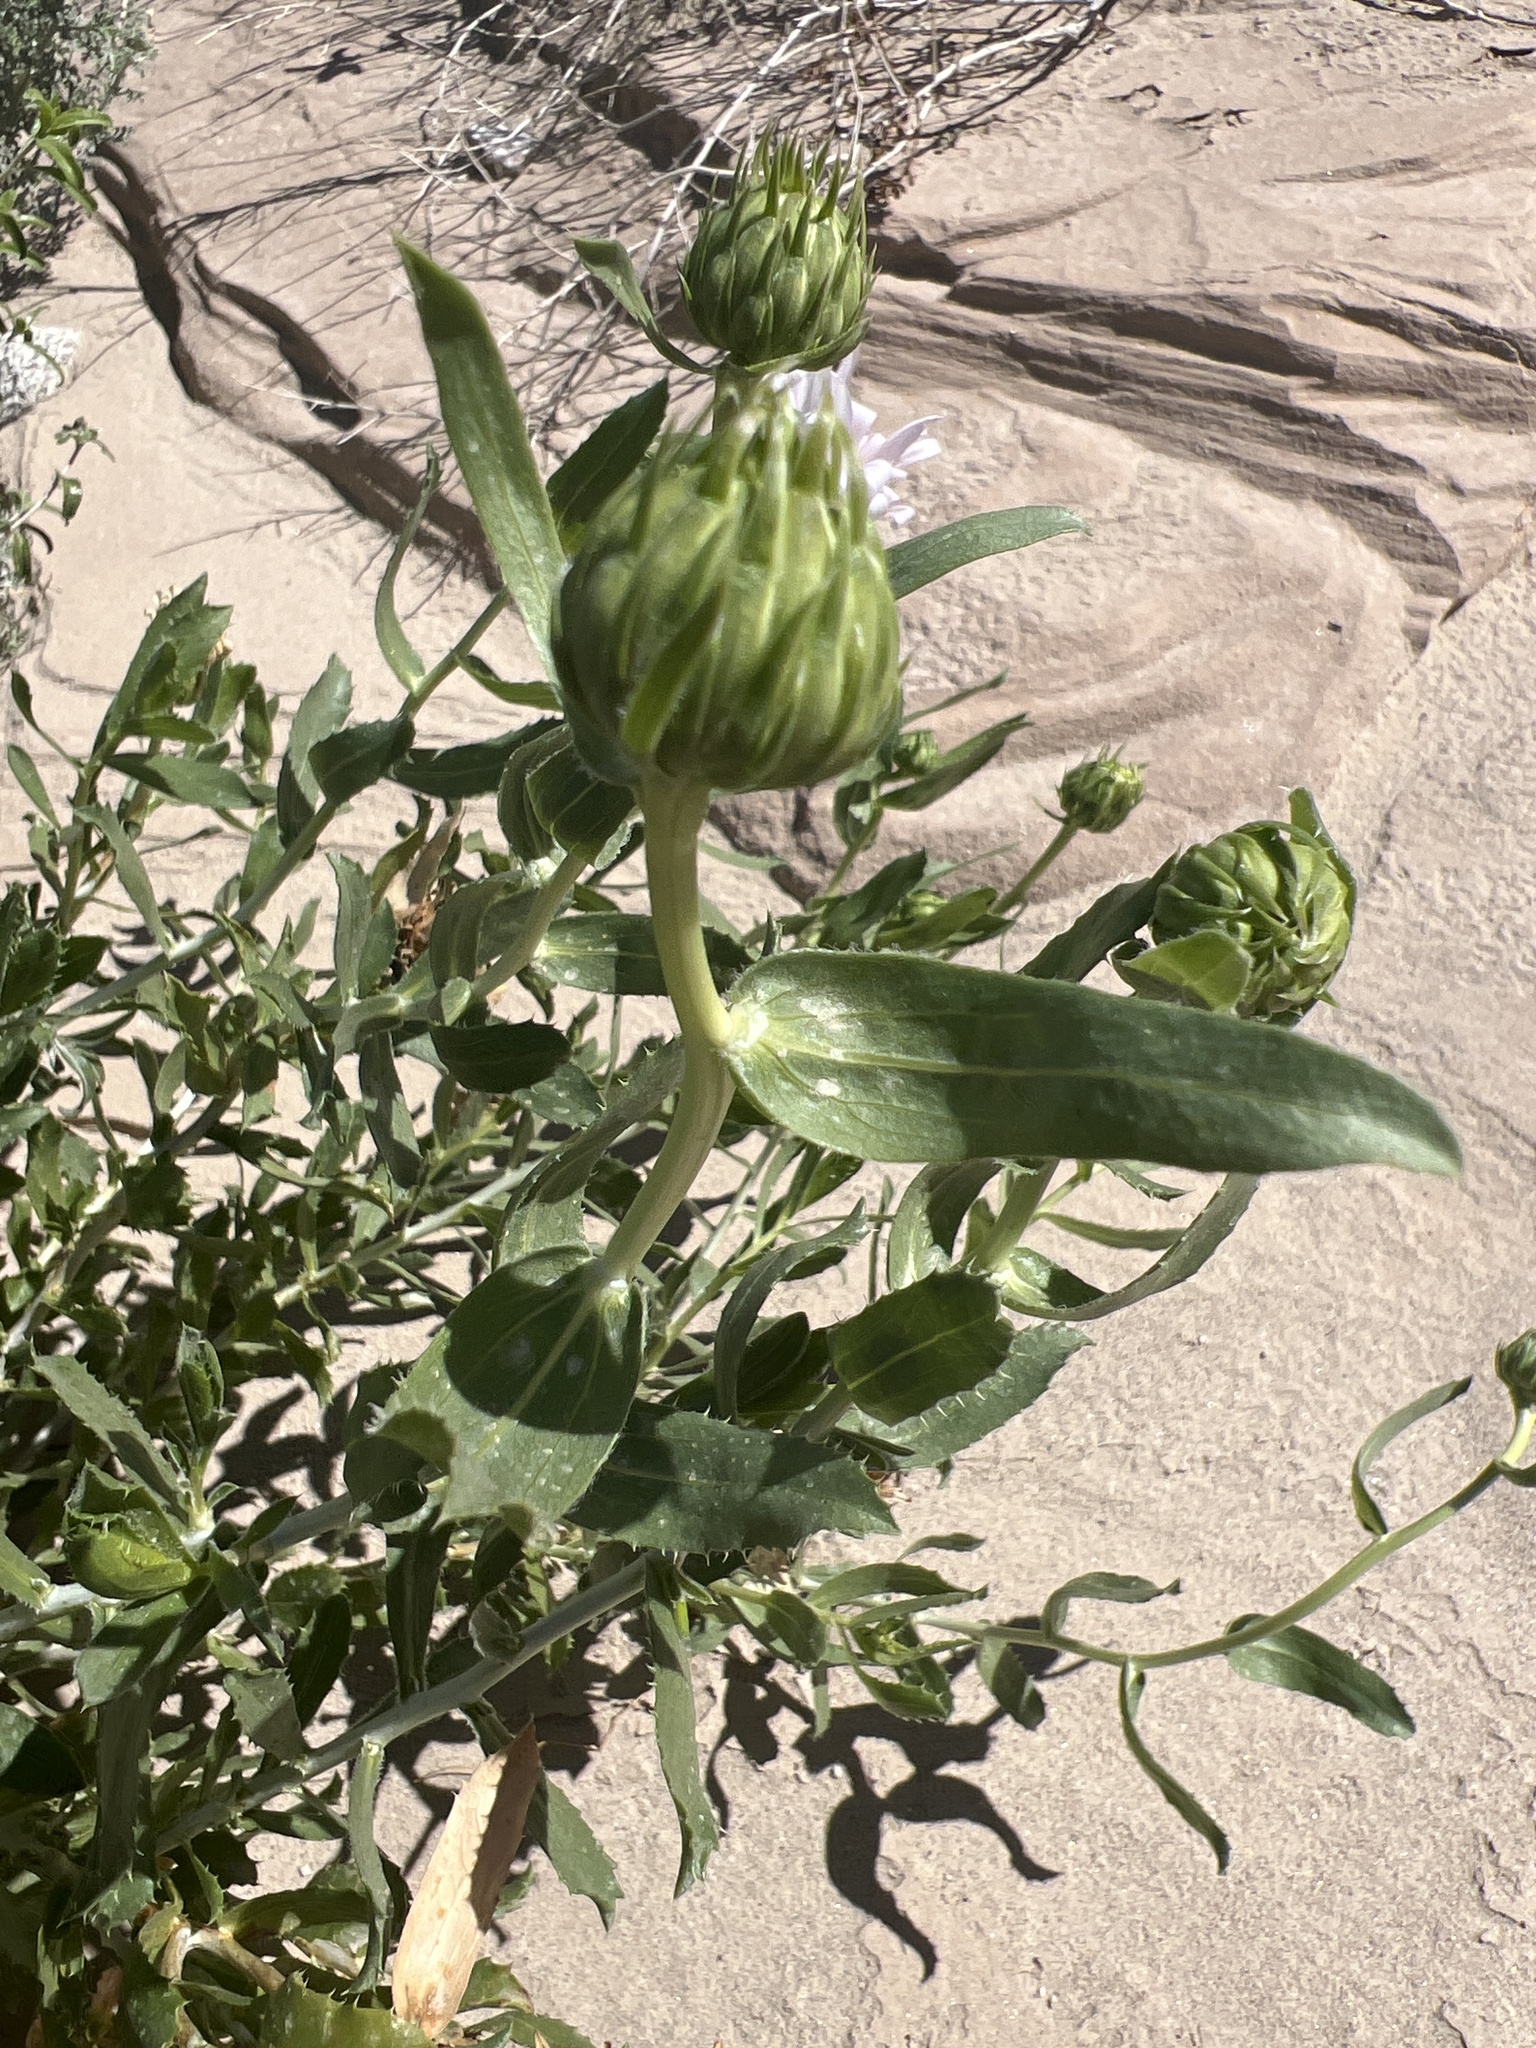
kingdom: Plantae
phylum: Tracheophyta
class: Magnoliopsida
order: Asterales
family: Asteraceae
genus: Xylorhiza
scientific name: Xylorhiza orcuttii
